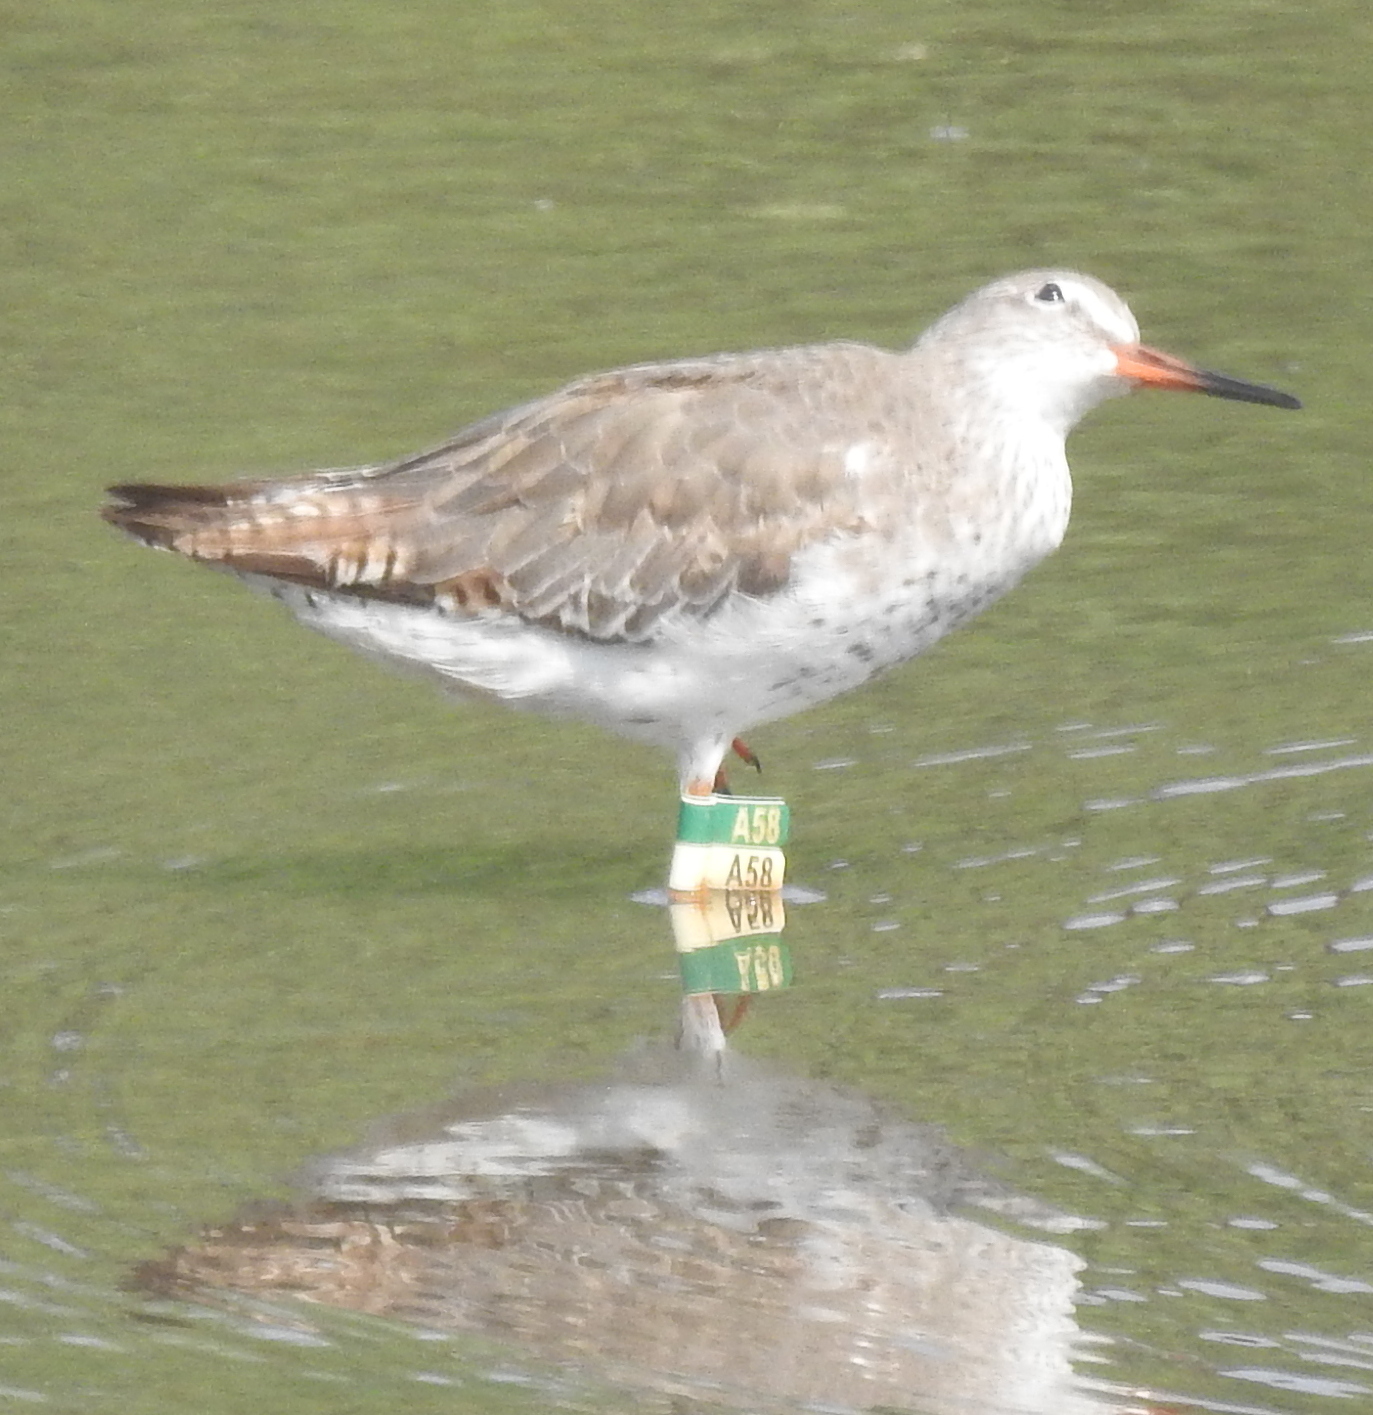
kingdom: Animalia
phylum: Chordata
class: Aves
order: Charadriiformes
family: Scolopacidae
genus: Tringa
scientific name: Tringa totanus
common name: Common redshank
